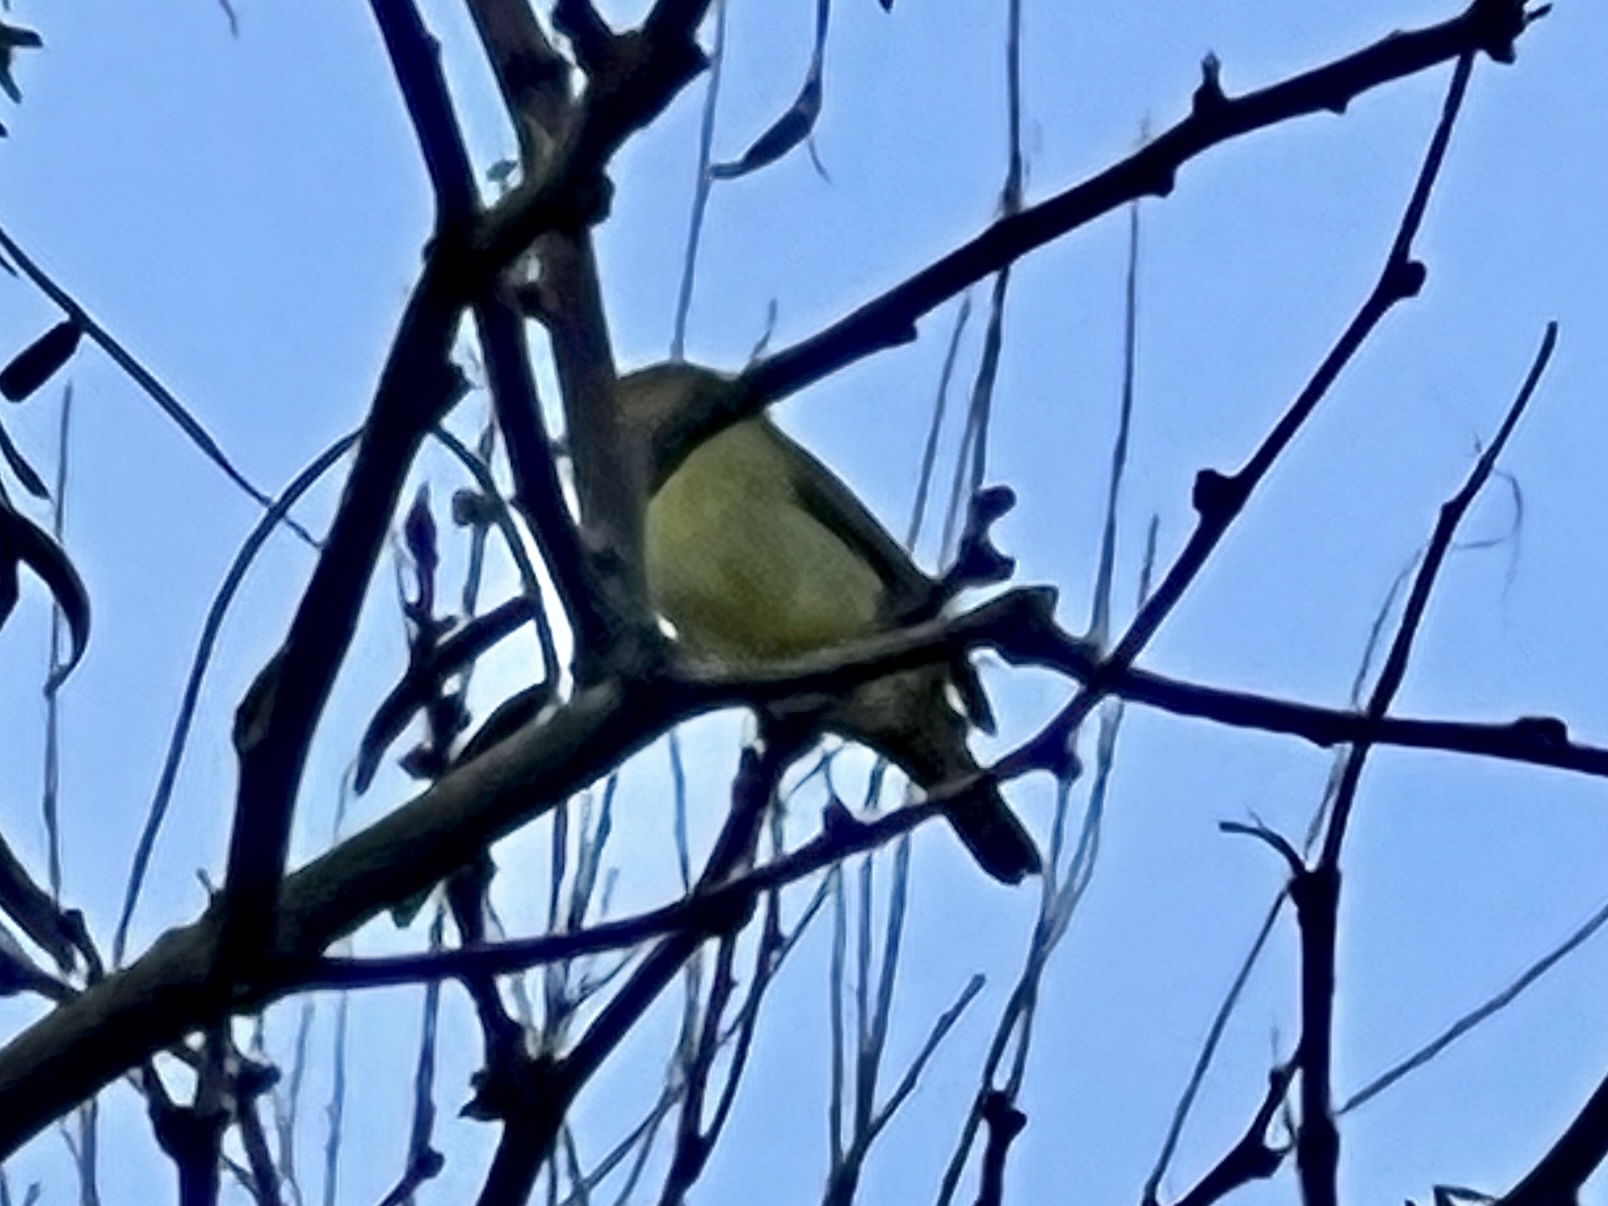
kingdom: Animalia
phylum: Chordata
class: Aves
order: Passeriformes
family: Parulidae
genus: Setophaga
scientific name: Setophaga petechia
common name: Yellow warbler
